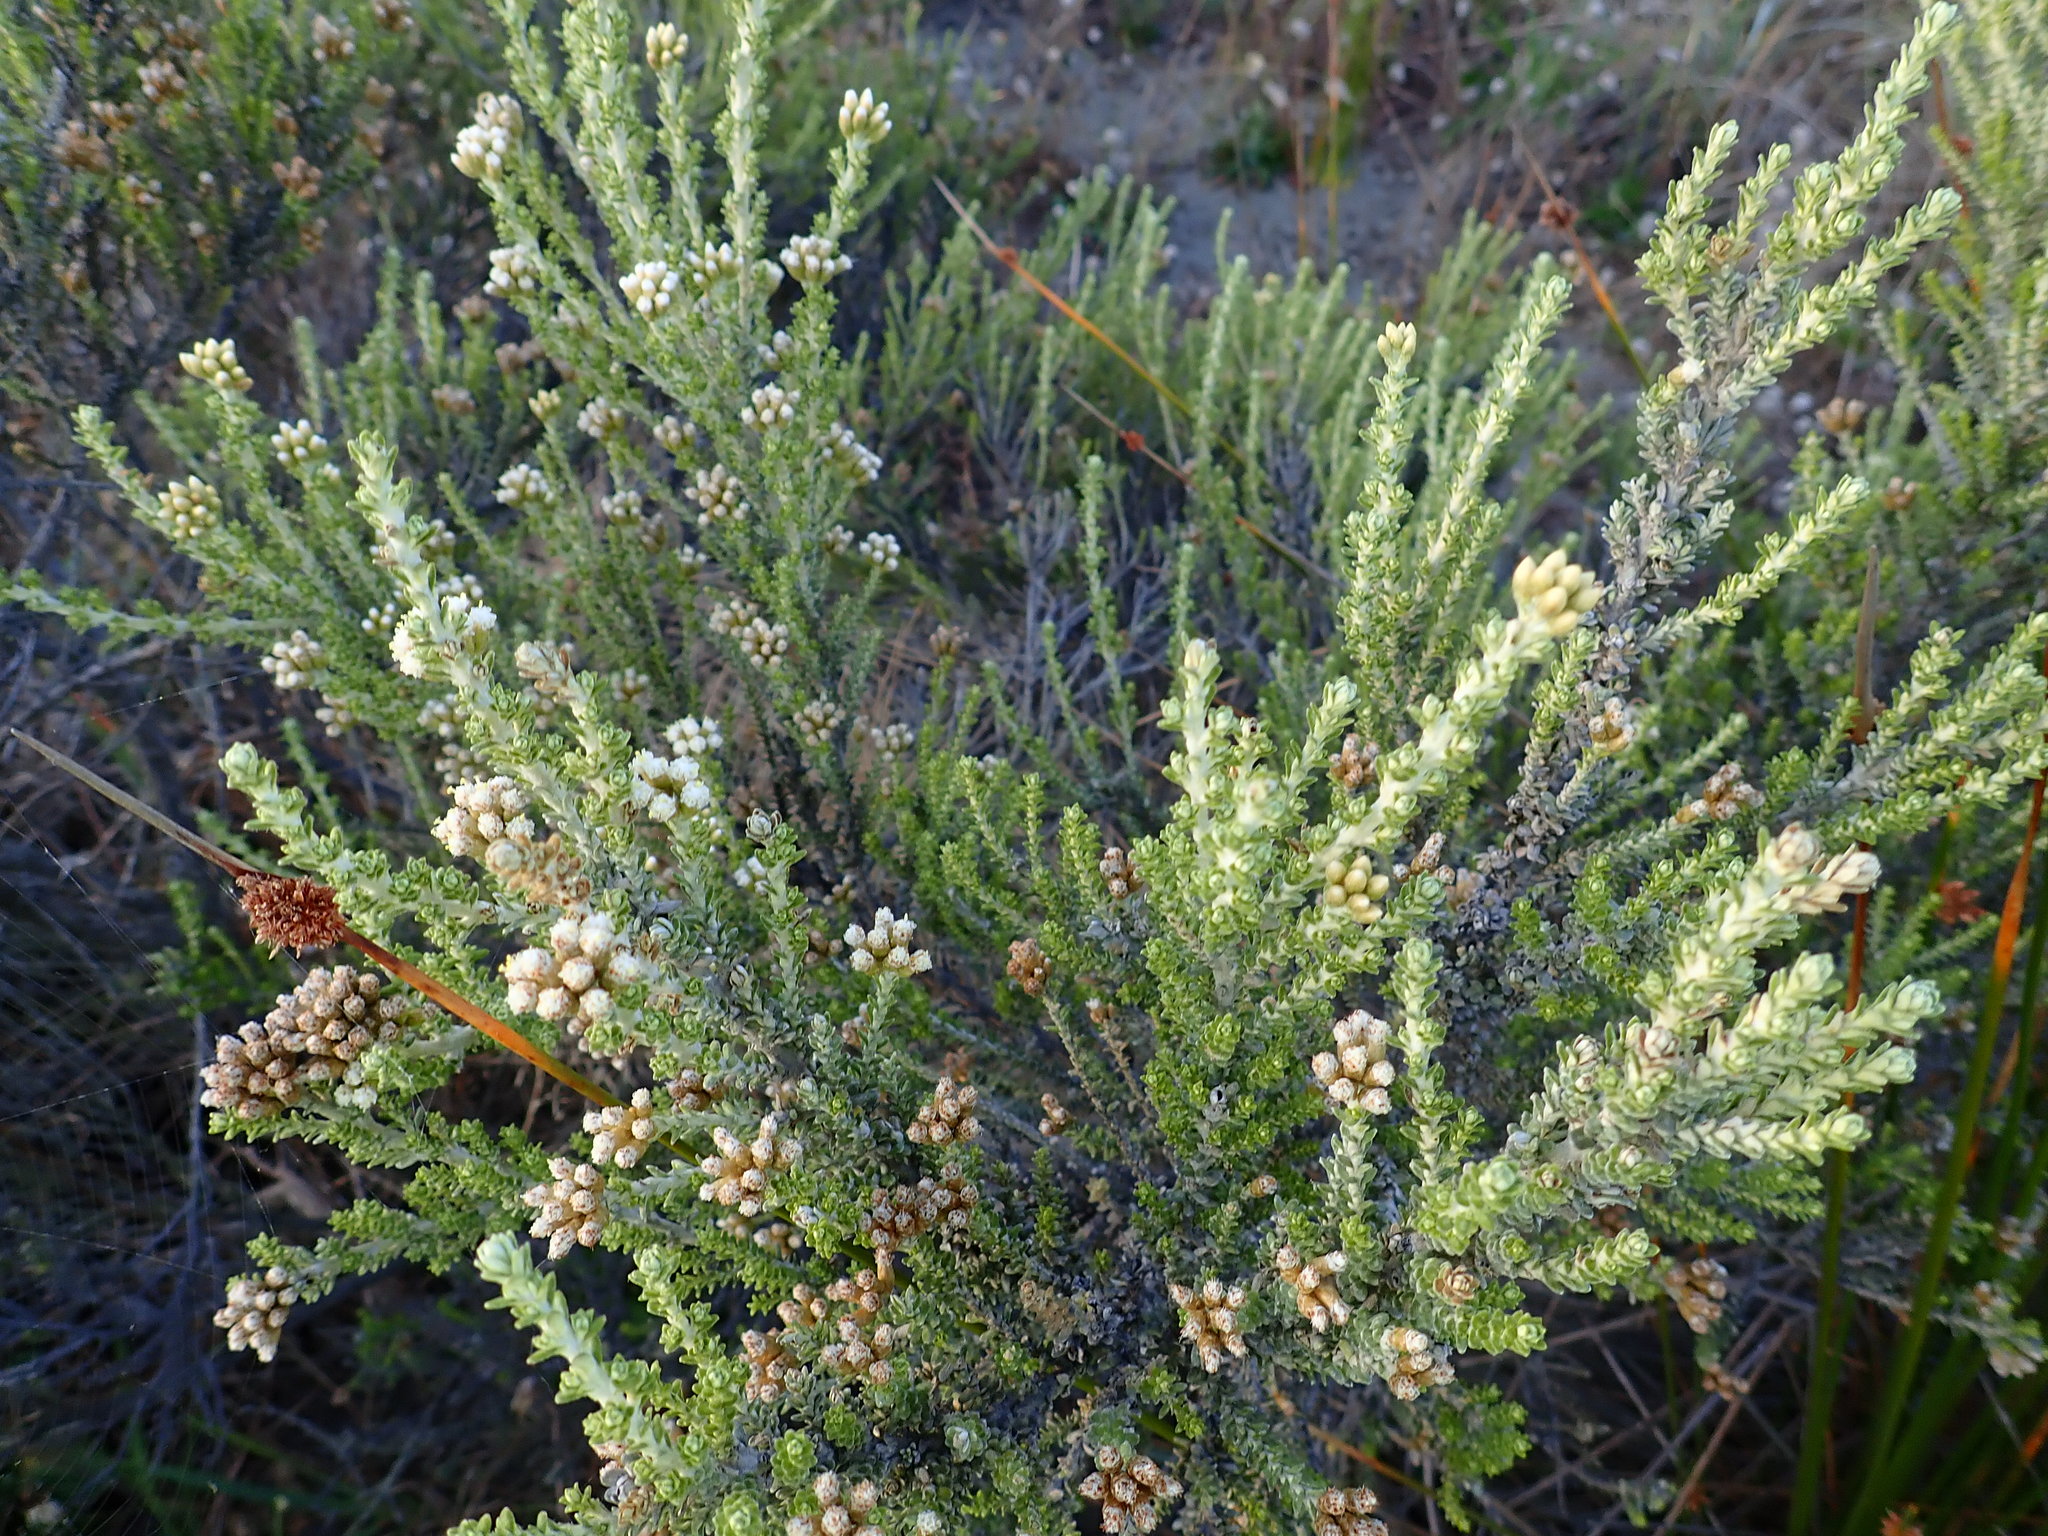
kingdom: Plantae
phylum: Tracheophyta
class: Magnoliopsida
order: Asterales
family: Asteraceae
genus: Ozothamnus
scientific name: Ozothamnus leptophyllus
